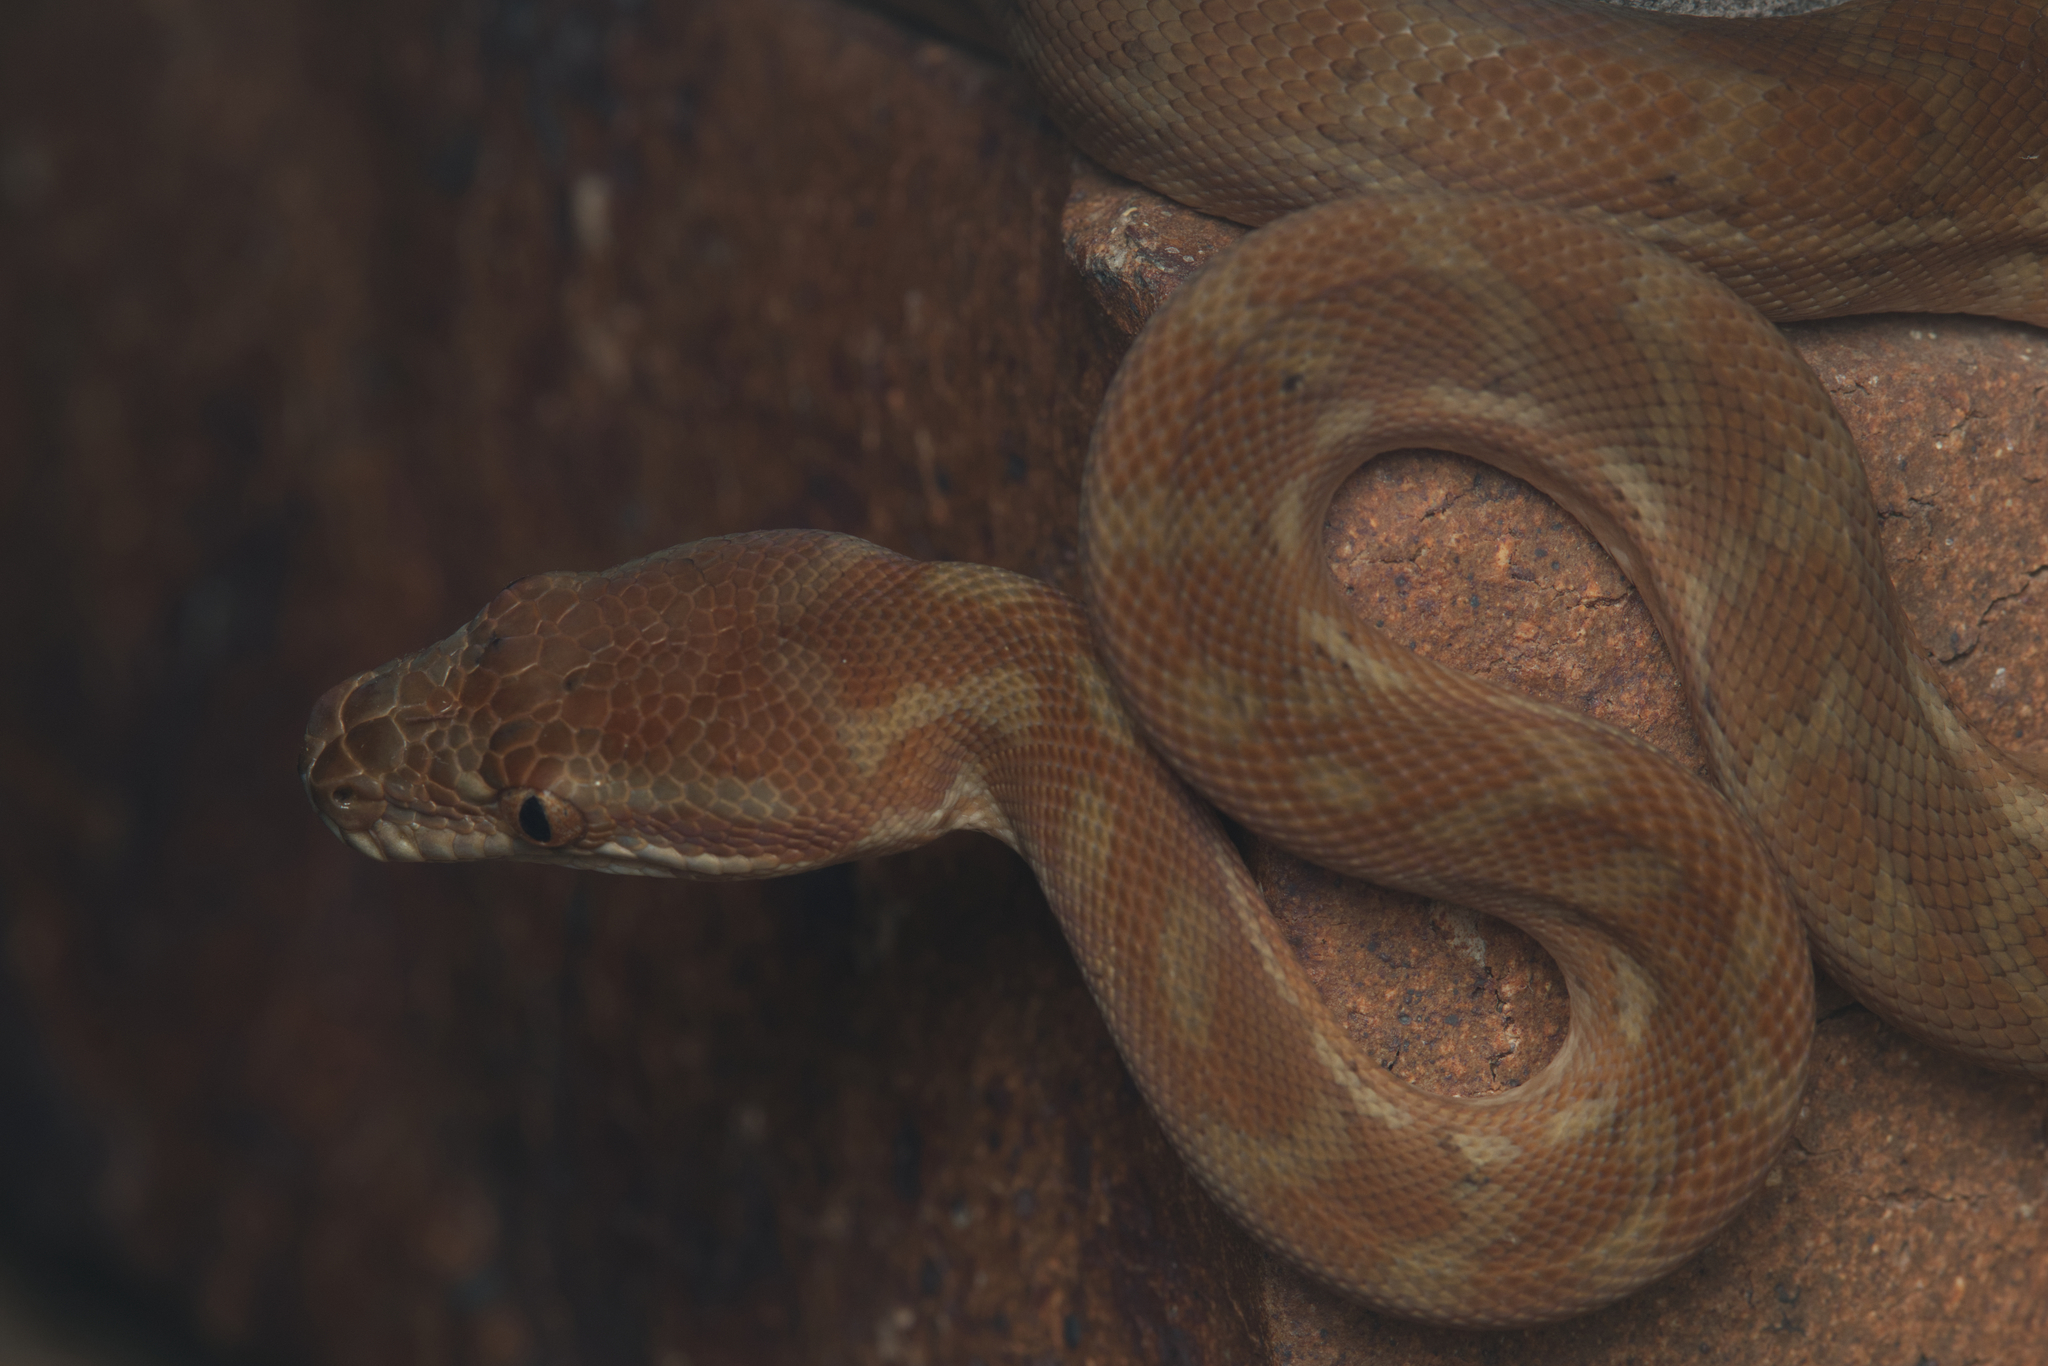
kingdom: Animalia
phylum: Chordata
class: Squamata
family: Pythonidae
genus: Morelia
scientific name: Morelia spilota
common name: Carpet python
